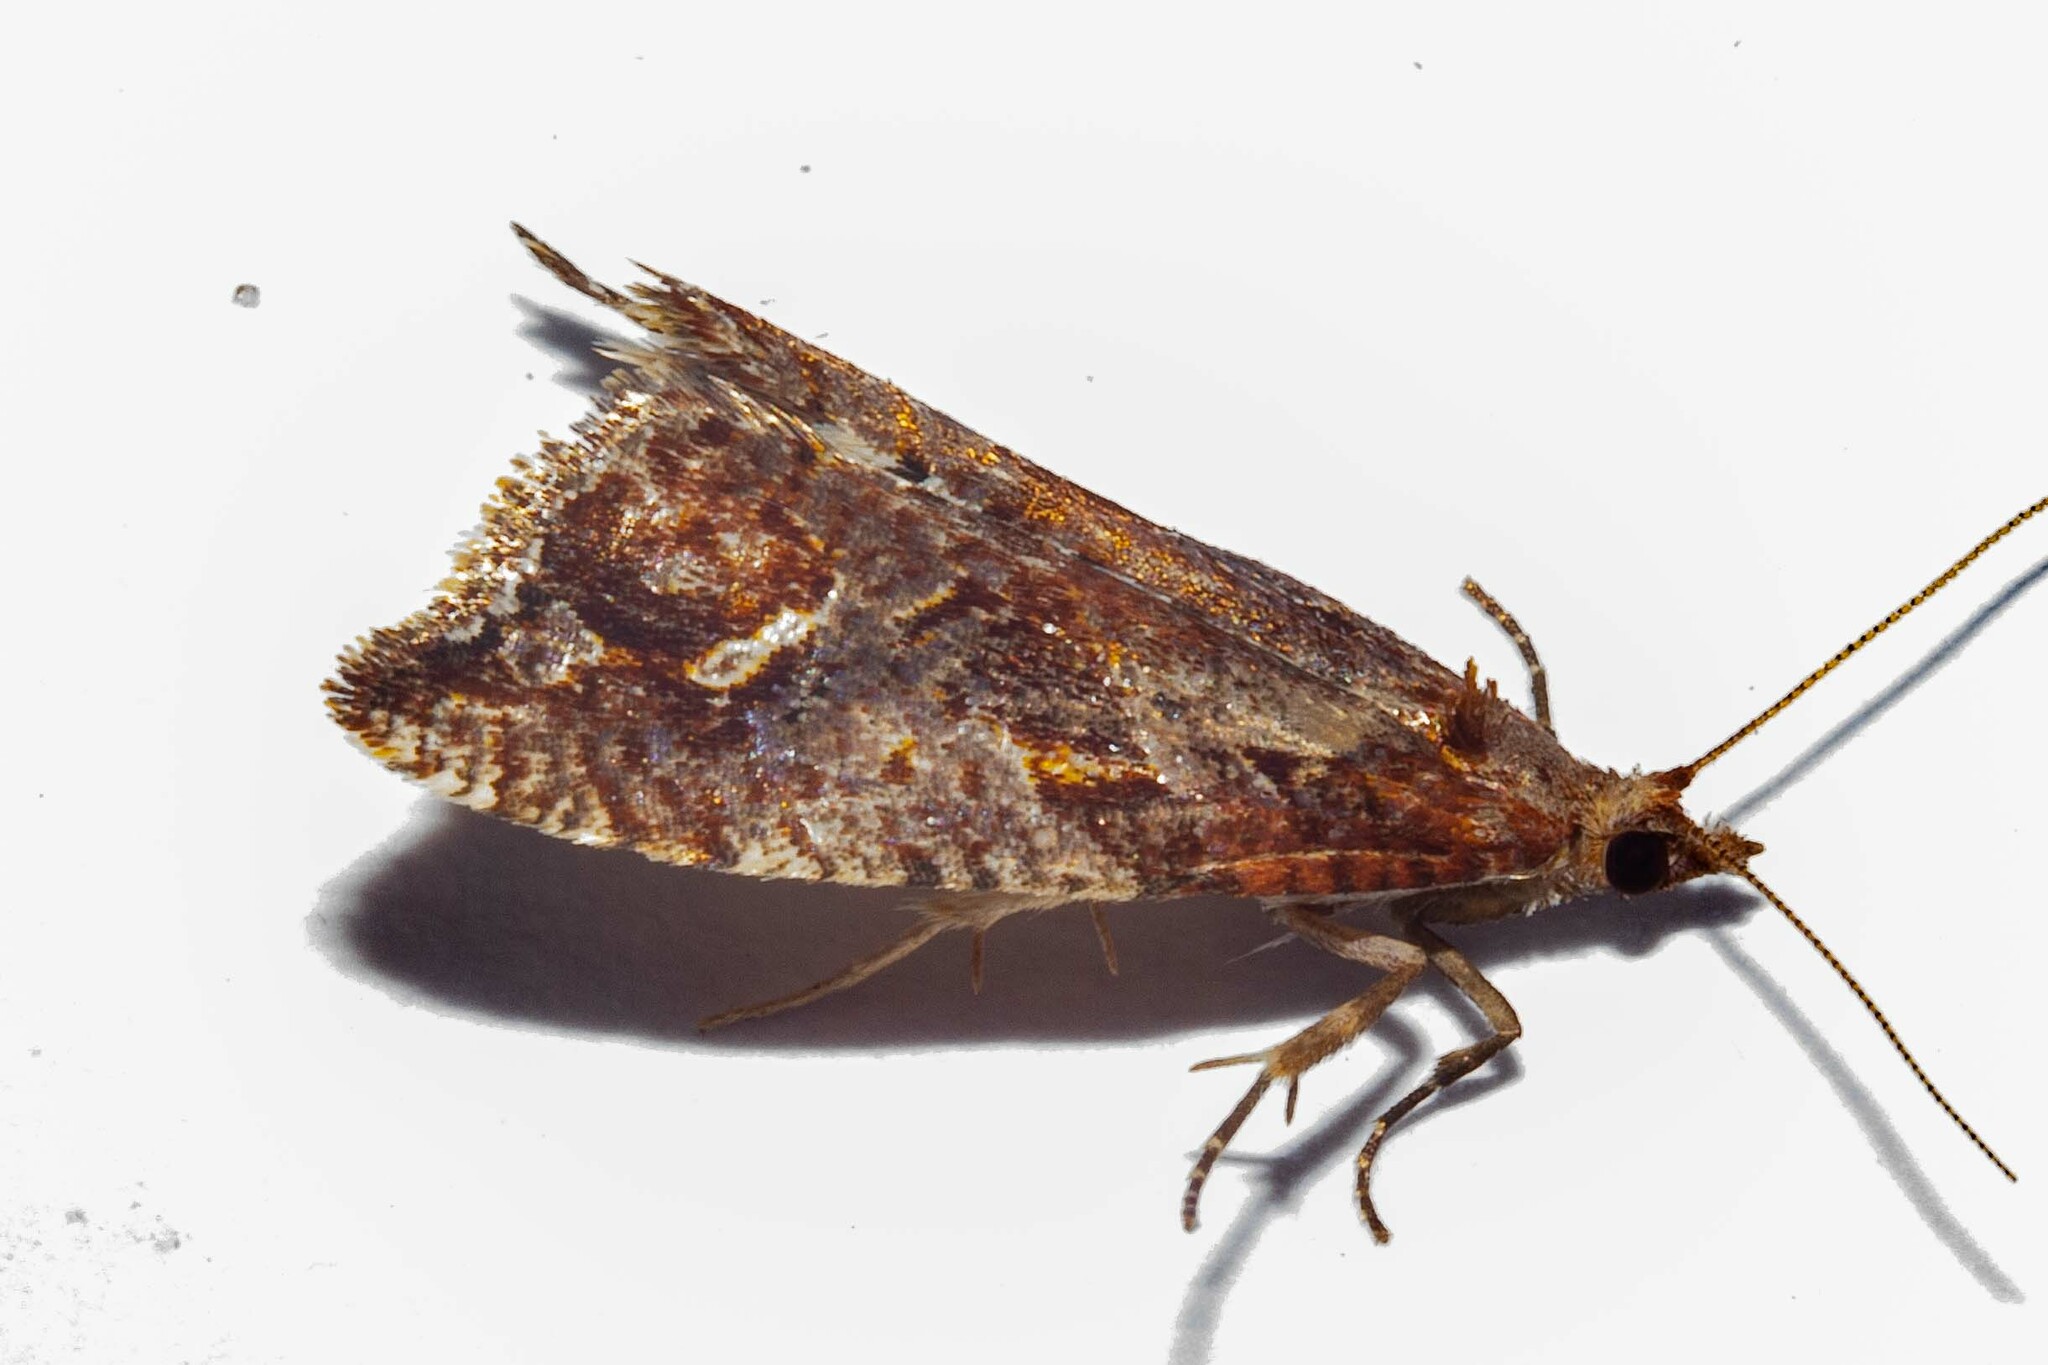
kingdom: Animalia
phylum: Arthropoda
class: Insecta
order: Lepidoptera
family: Tortricidae
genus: Pyrgotis
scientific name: Pyrgotis plagiatana
